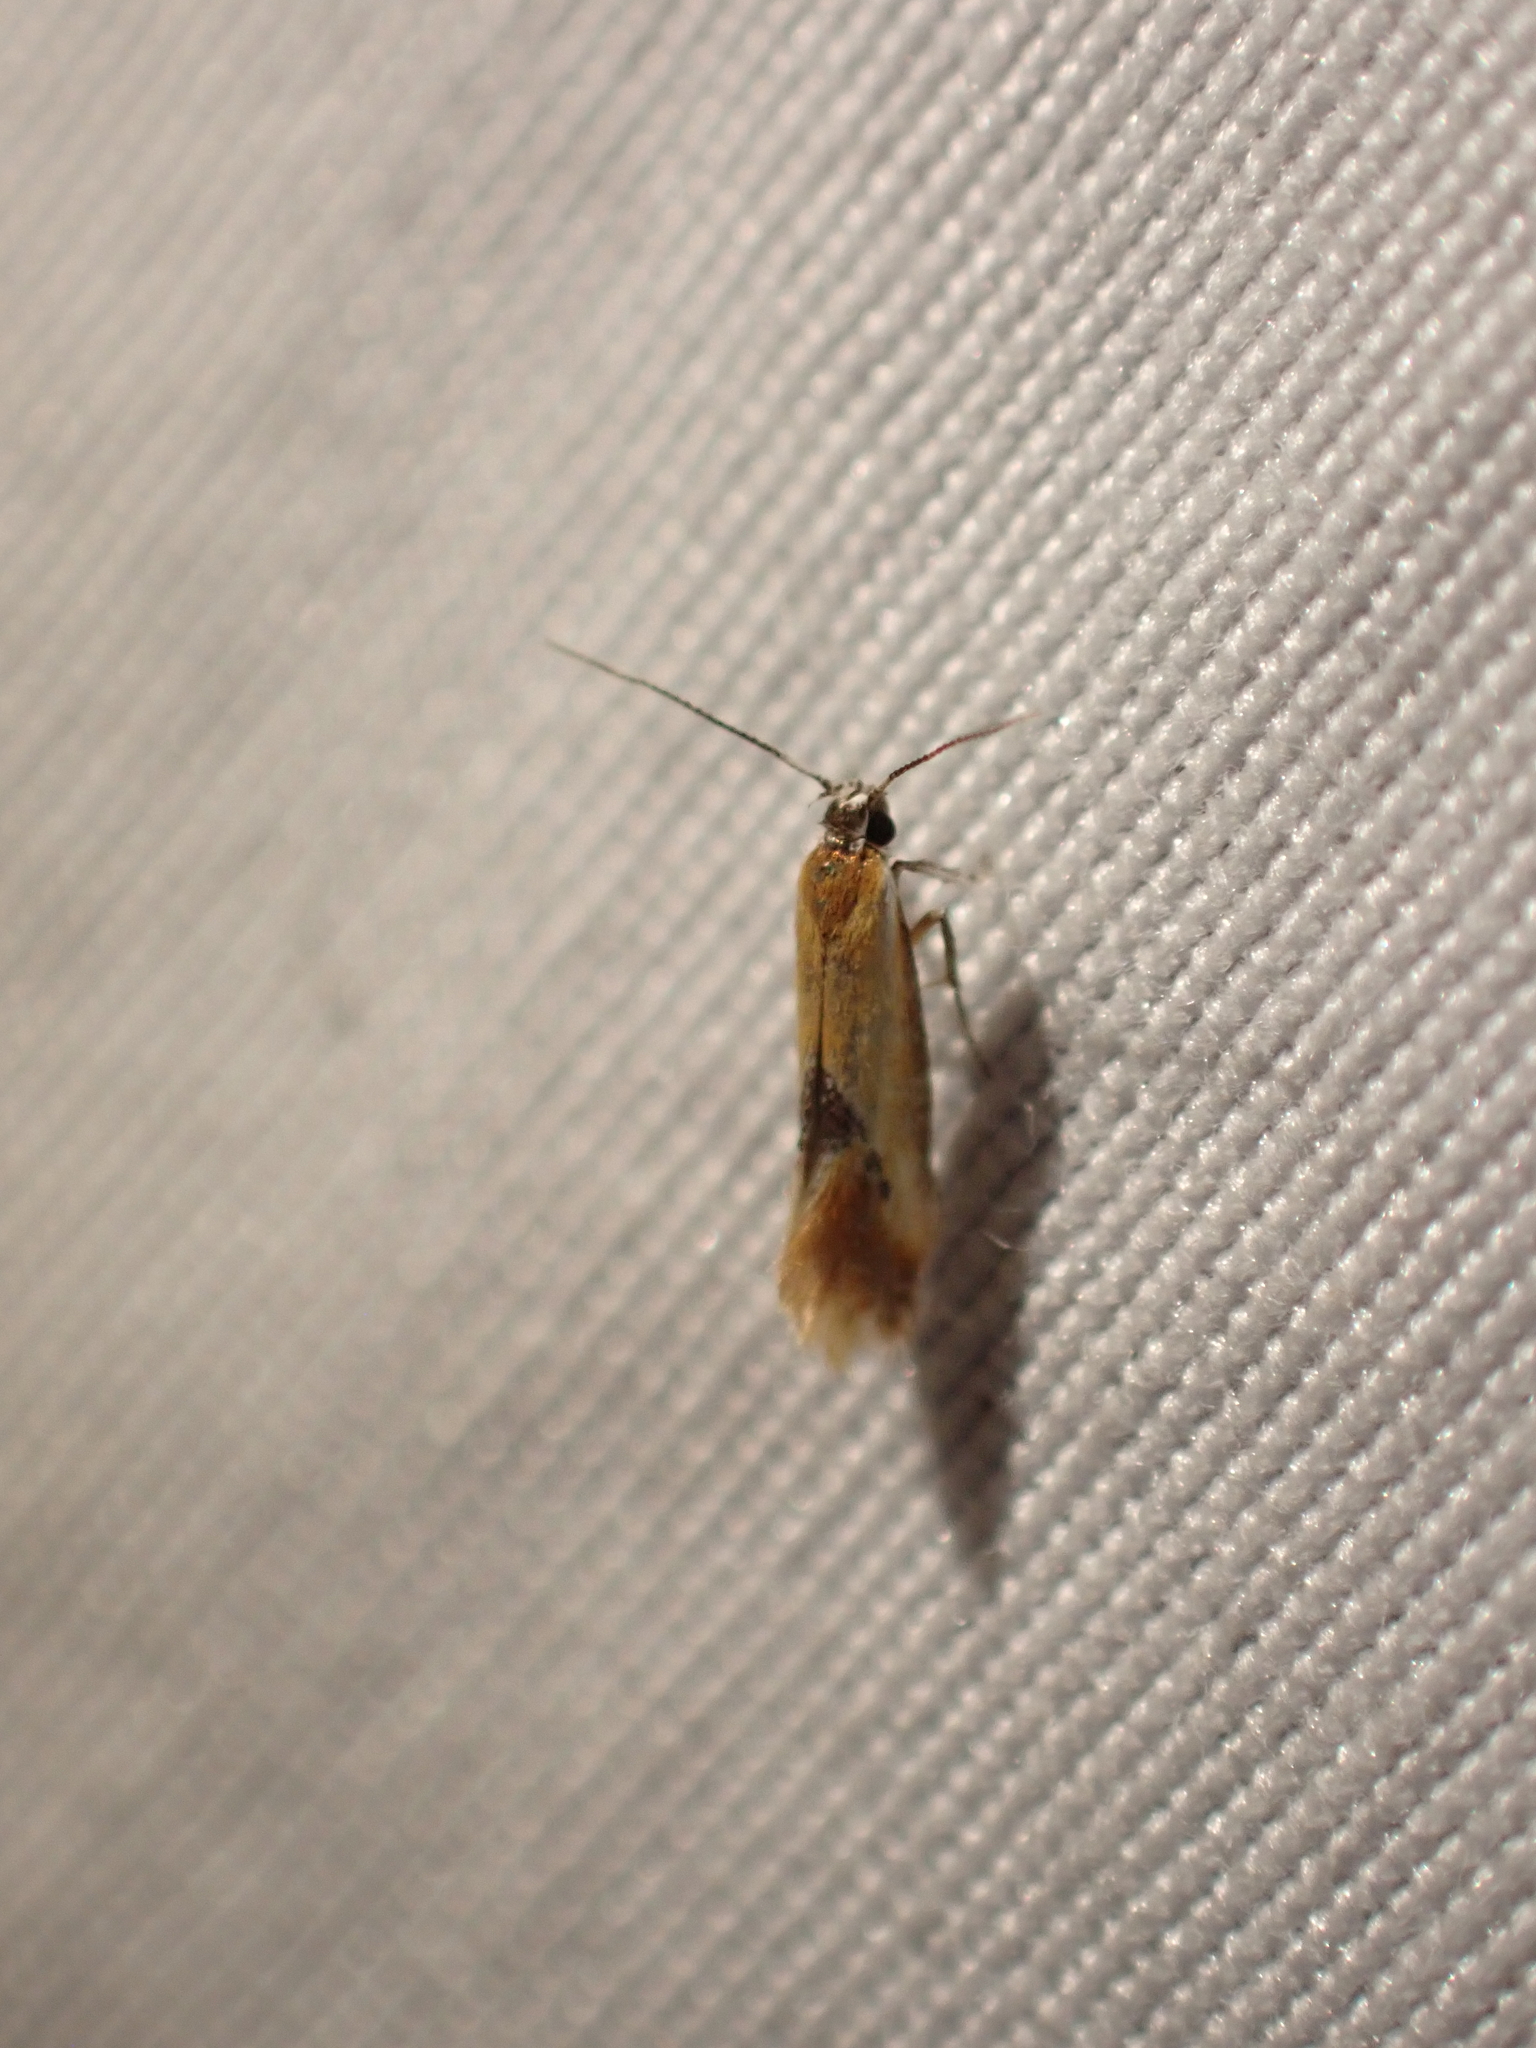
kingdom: Animalia
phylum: Arthropoda
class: Insecta
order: Lepidoptera
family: Oecophoridae
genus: Batia
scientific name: Batia lunaris
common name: Moth
